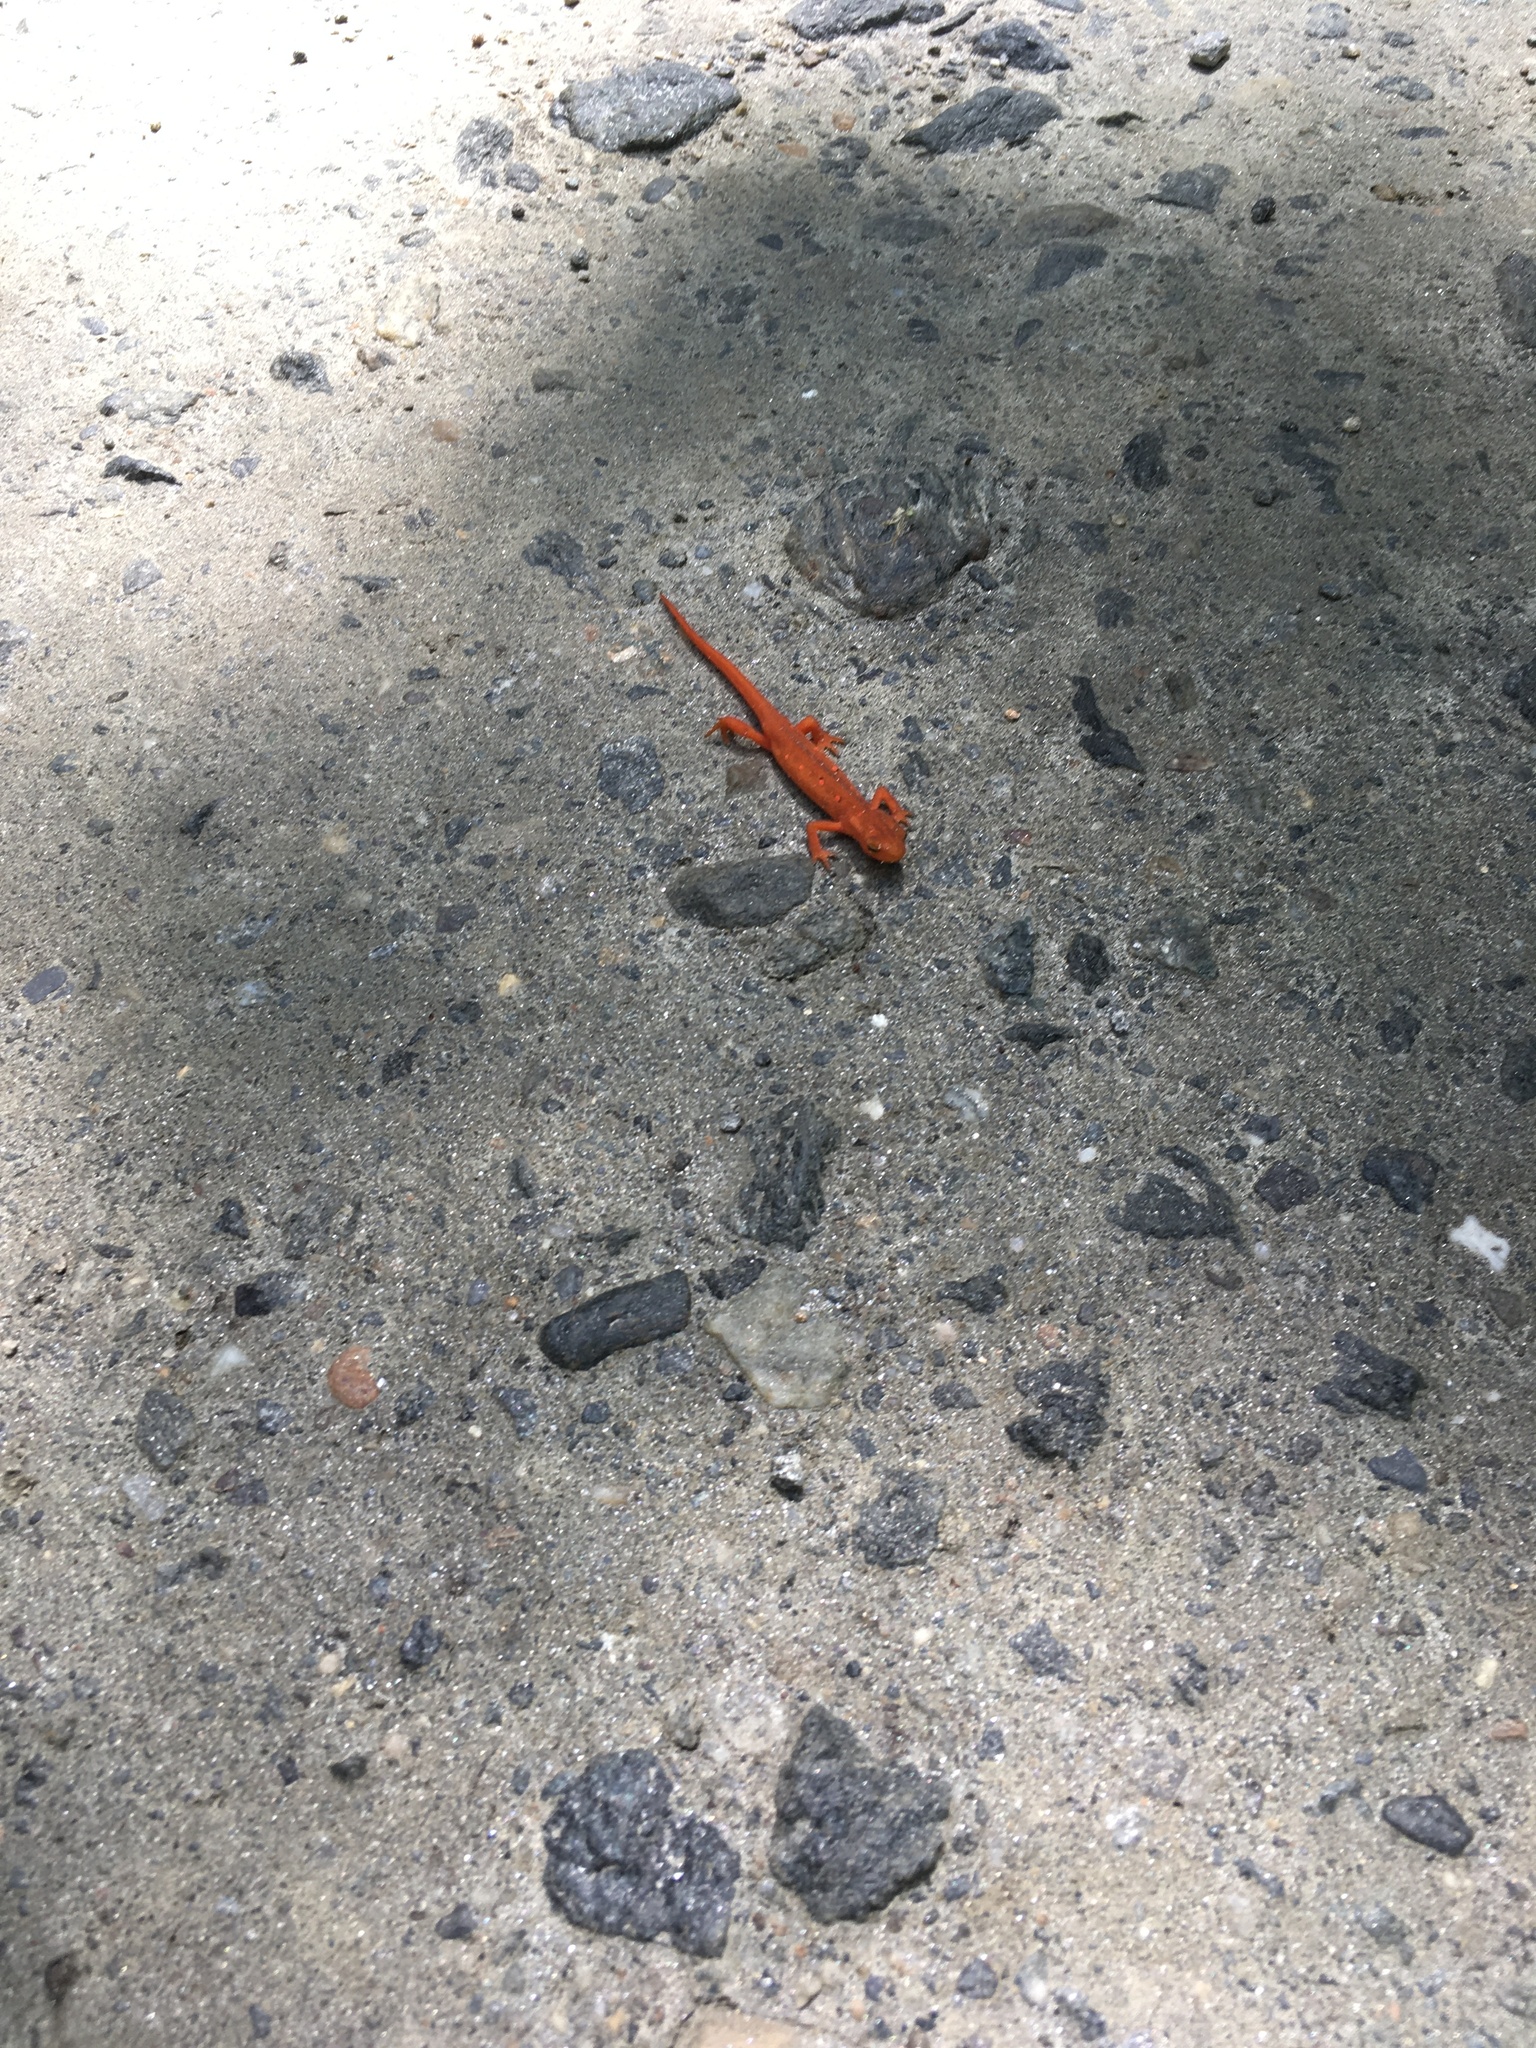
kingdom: Animalia
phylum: Chordata
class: Amphibia
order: Caudata
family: Salamandridae
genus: Notophthalmus
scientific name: Notophthalmus viridescens
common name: Eastern newt
